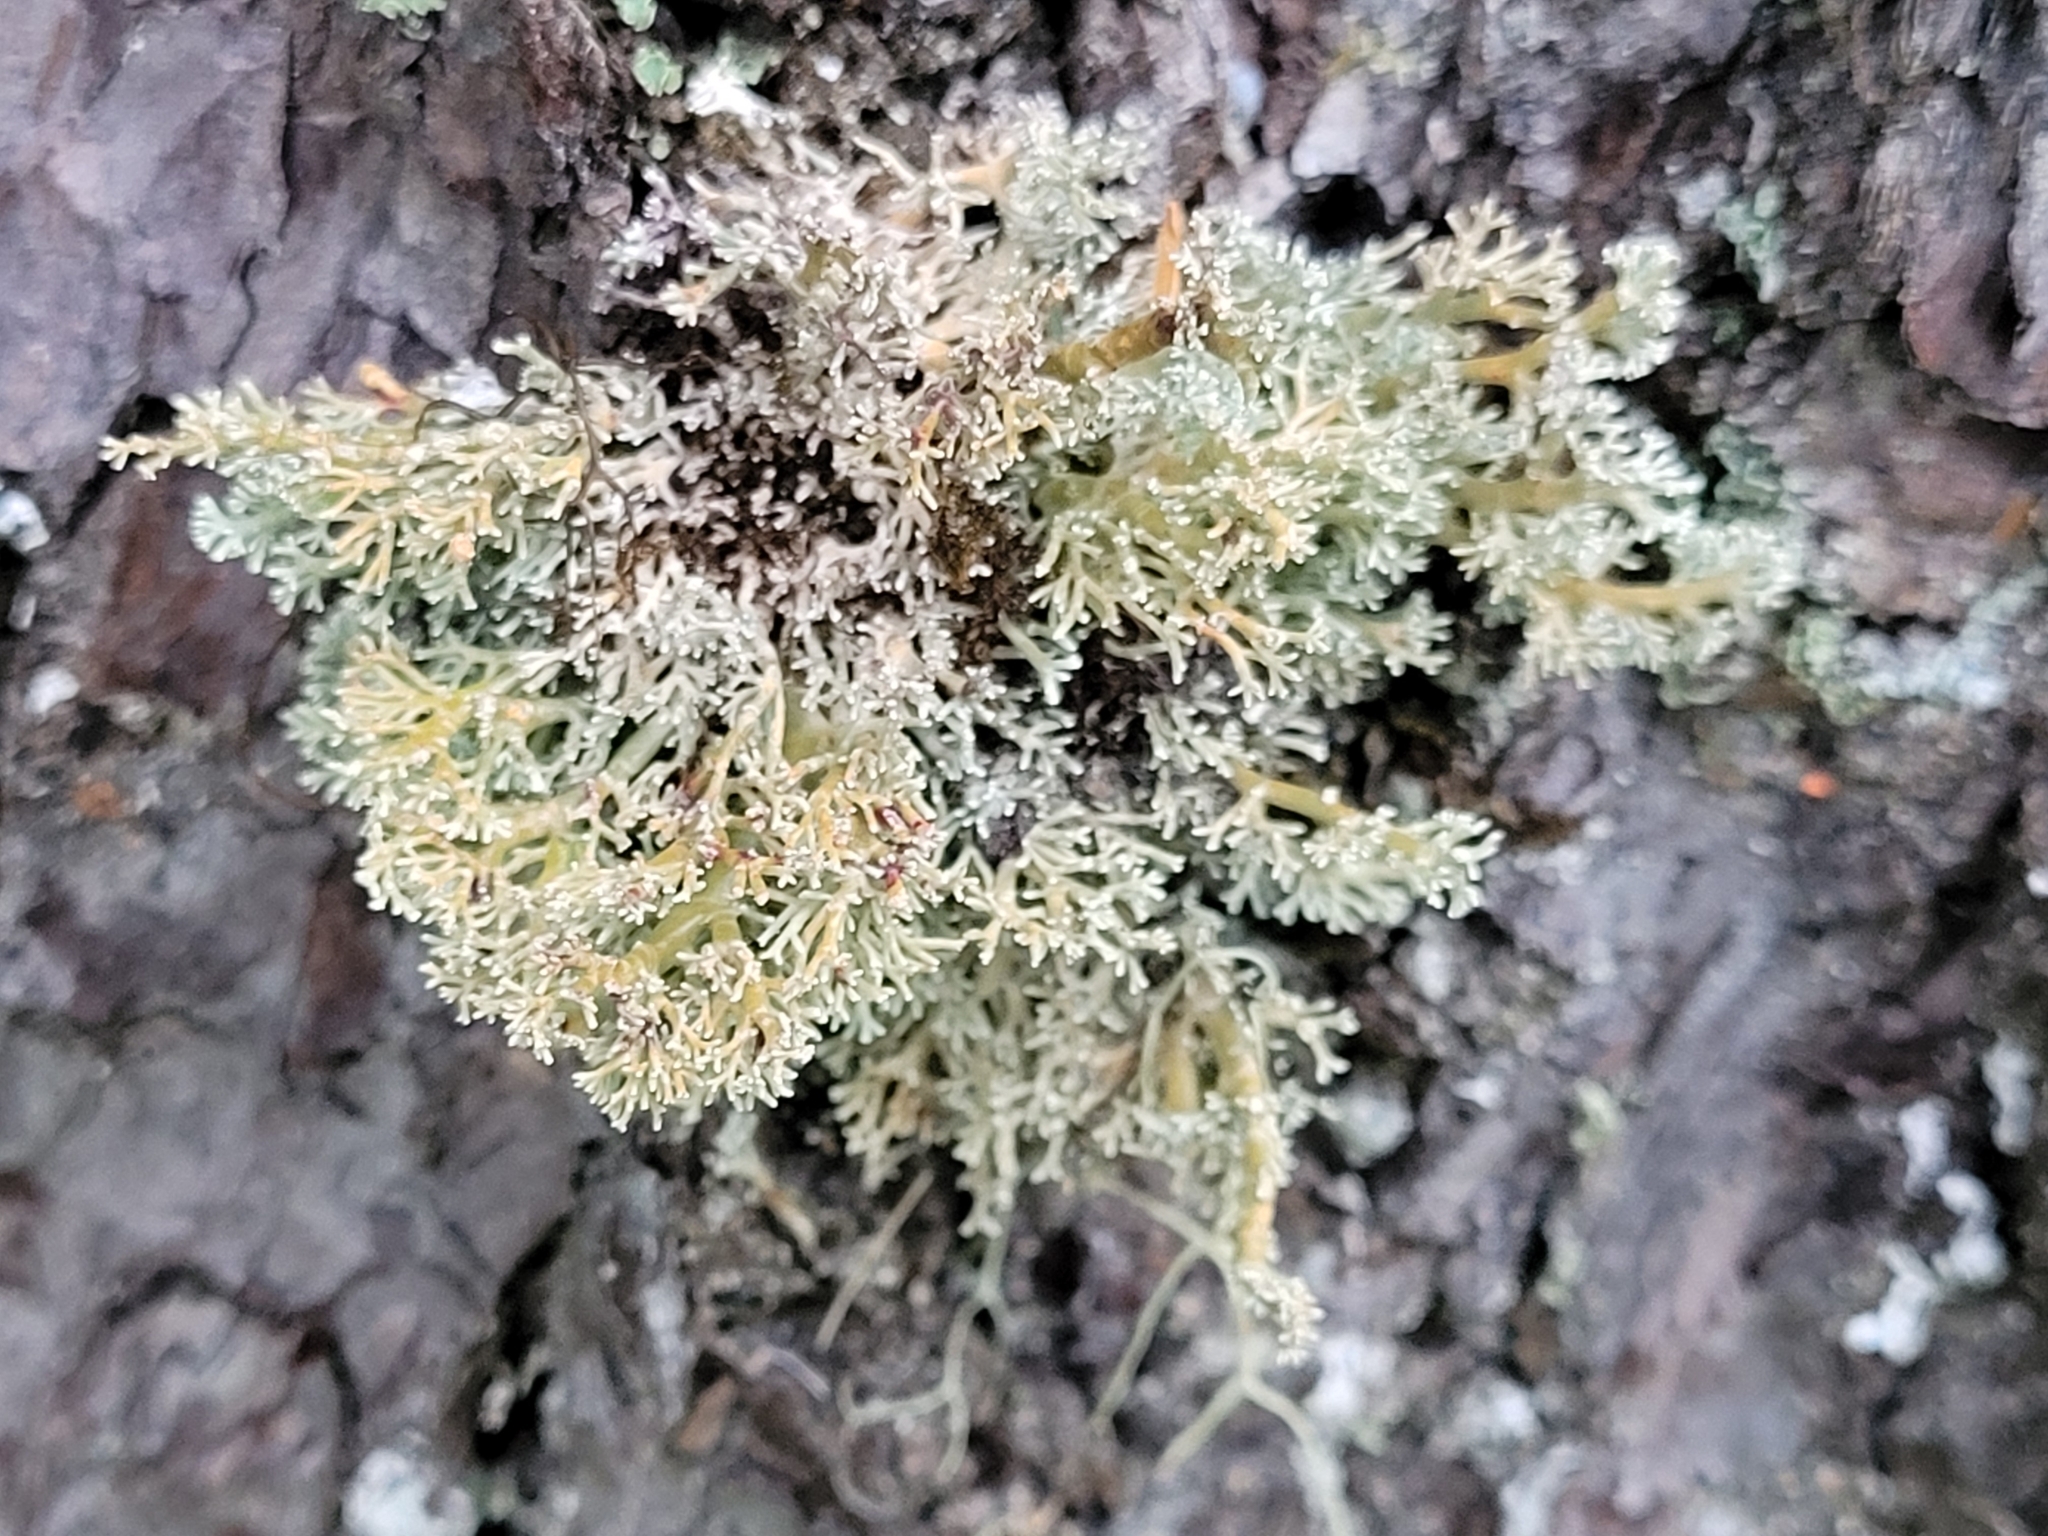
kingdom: Fungi
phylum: Ascomycota
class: Lecanoromycetes
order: Lecanorales
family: Sphaerophoraceae
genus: Sphaerophorus
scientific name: Sphaerophorus globosus
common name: Globe ball lichen
